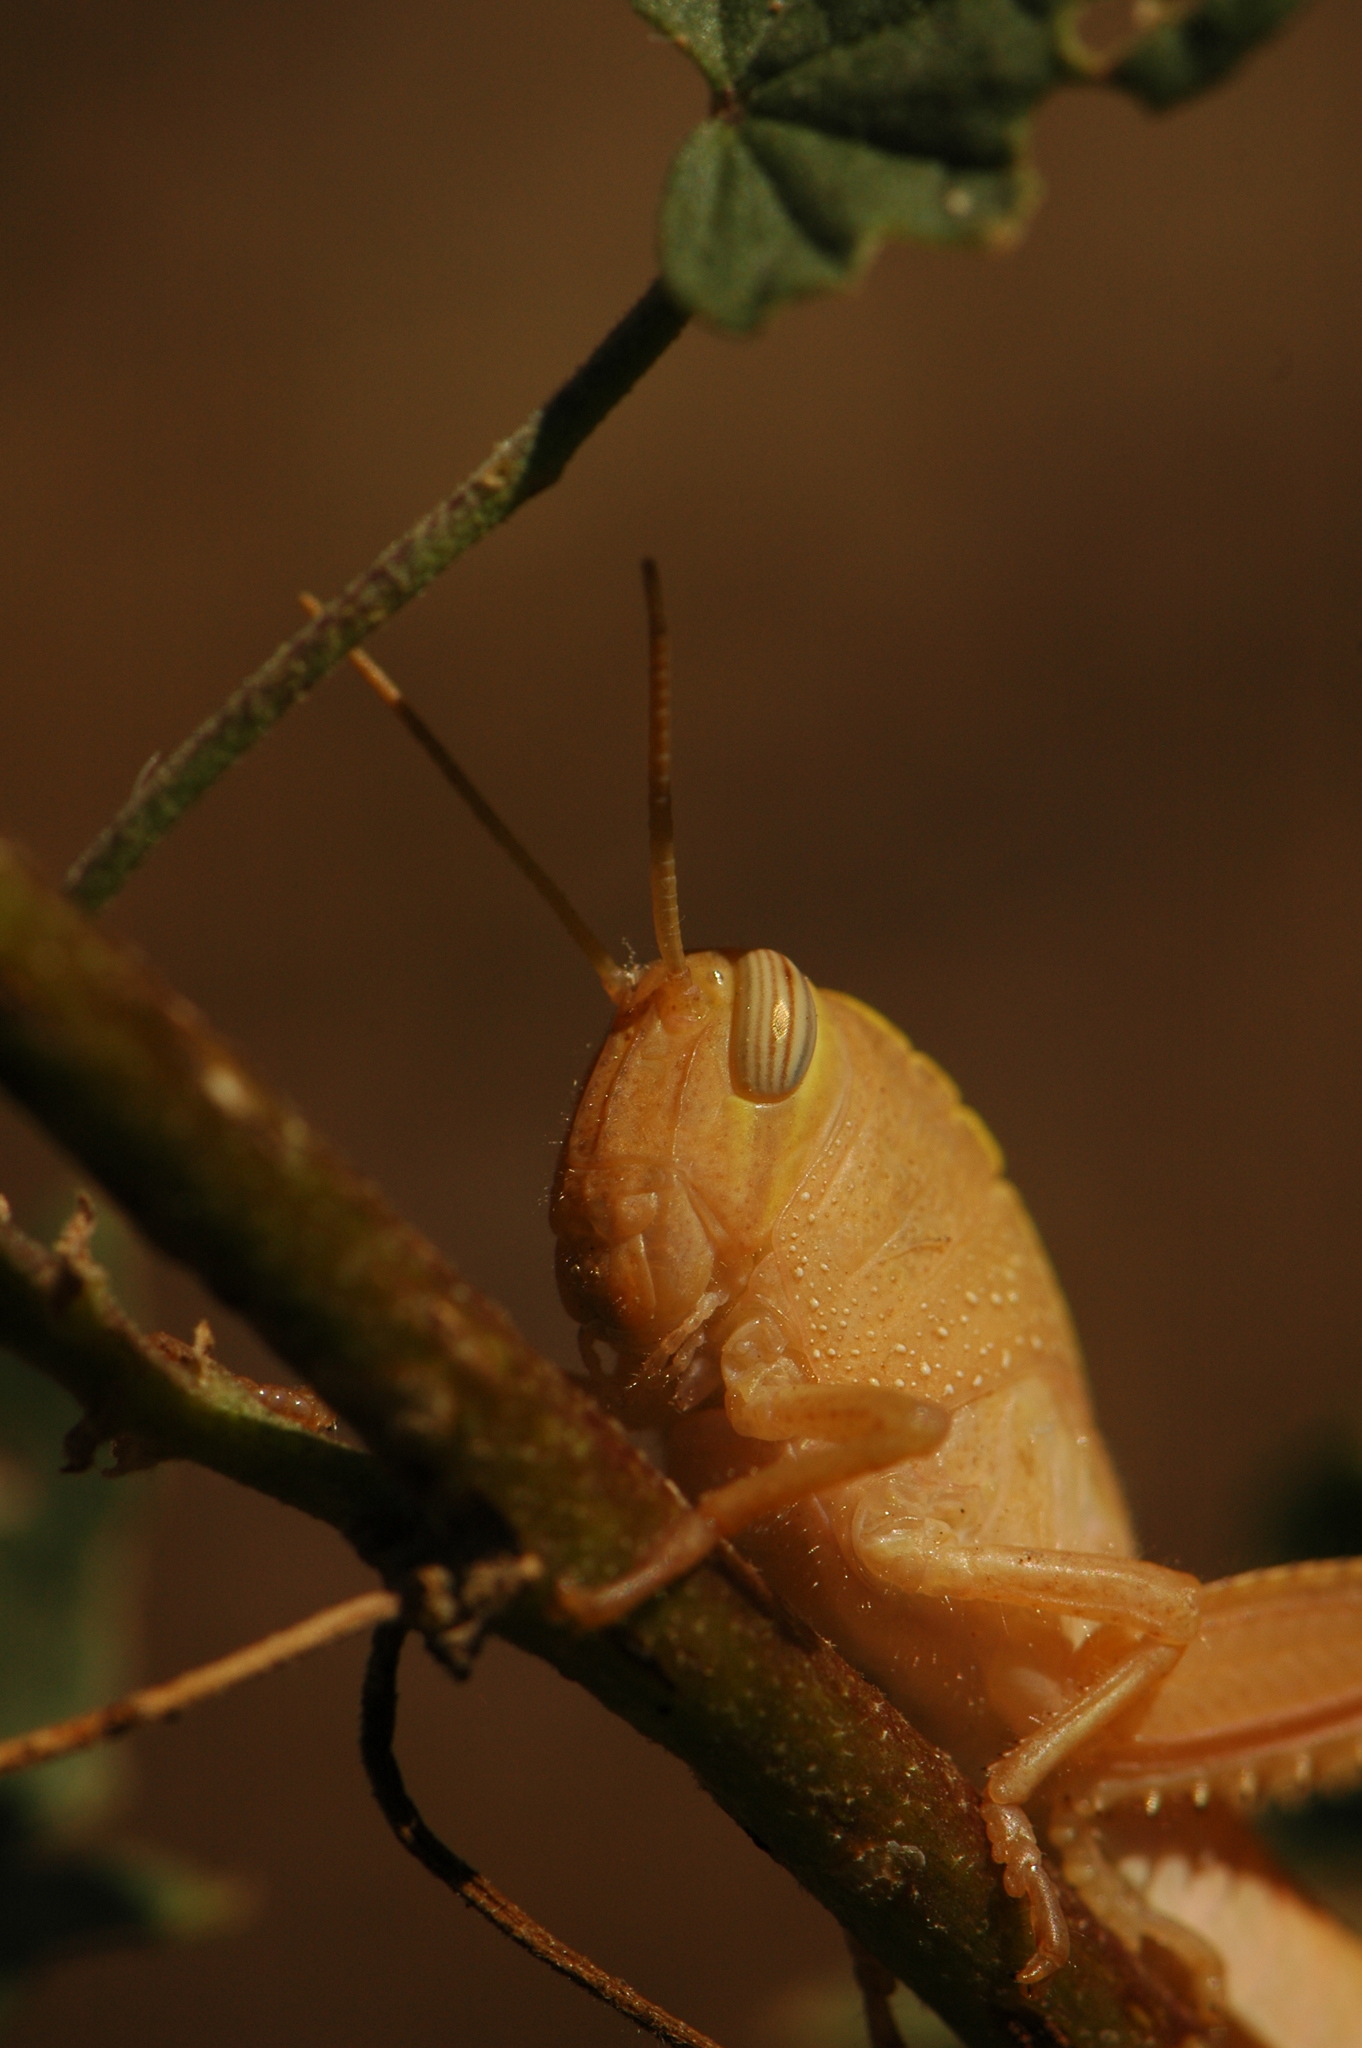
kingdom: Animalia
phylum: Arthropoda
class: Insecta
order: Orthoptera
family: Acrididae
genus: Anacridium
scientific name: Anacridium aegyptium
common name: Egyptian grasshopper
